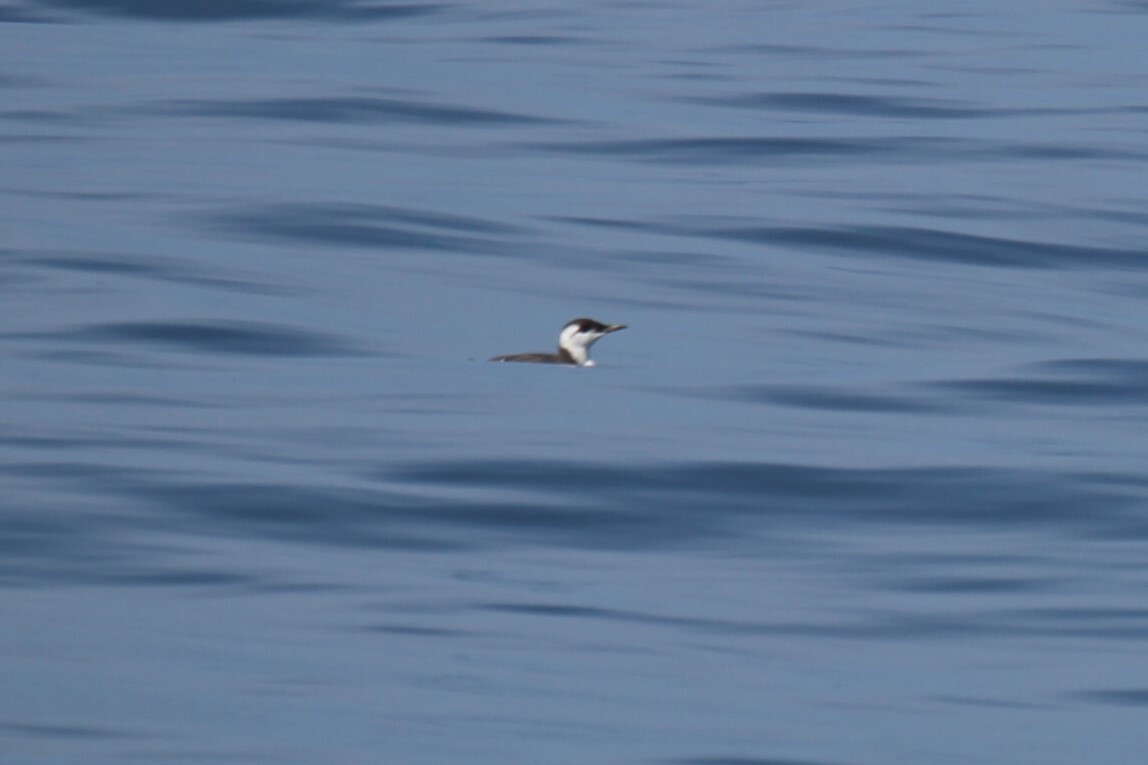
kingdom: Animalia
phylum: Chordata
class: Aves
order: Charadriiformes
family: Alcidae
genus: Uria
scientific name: Uria aalge
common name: Common murre
